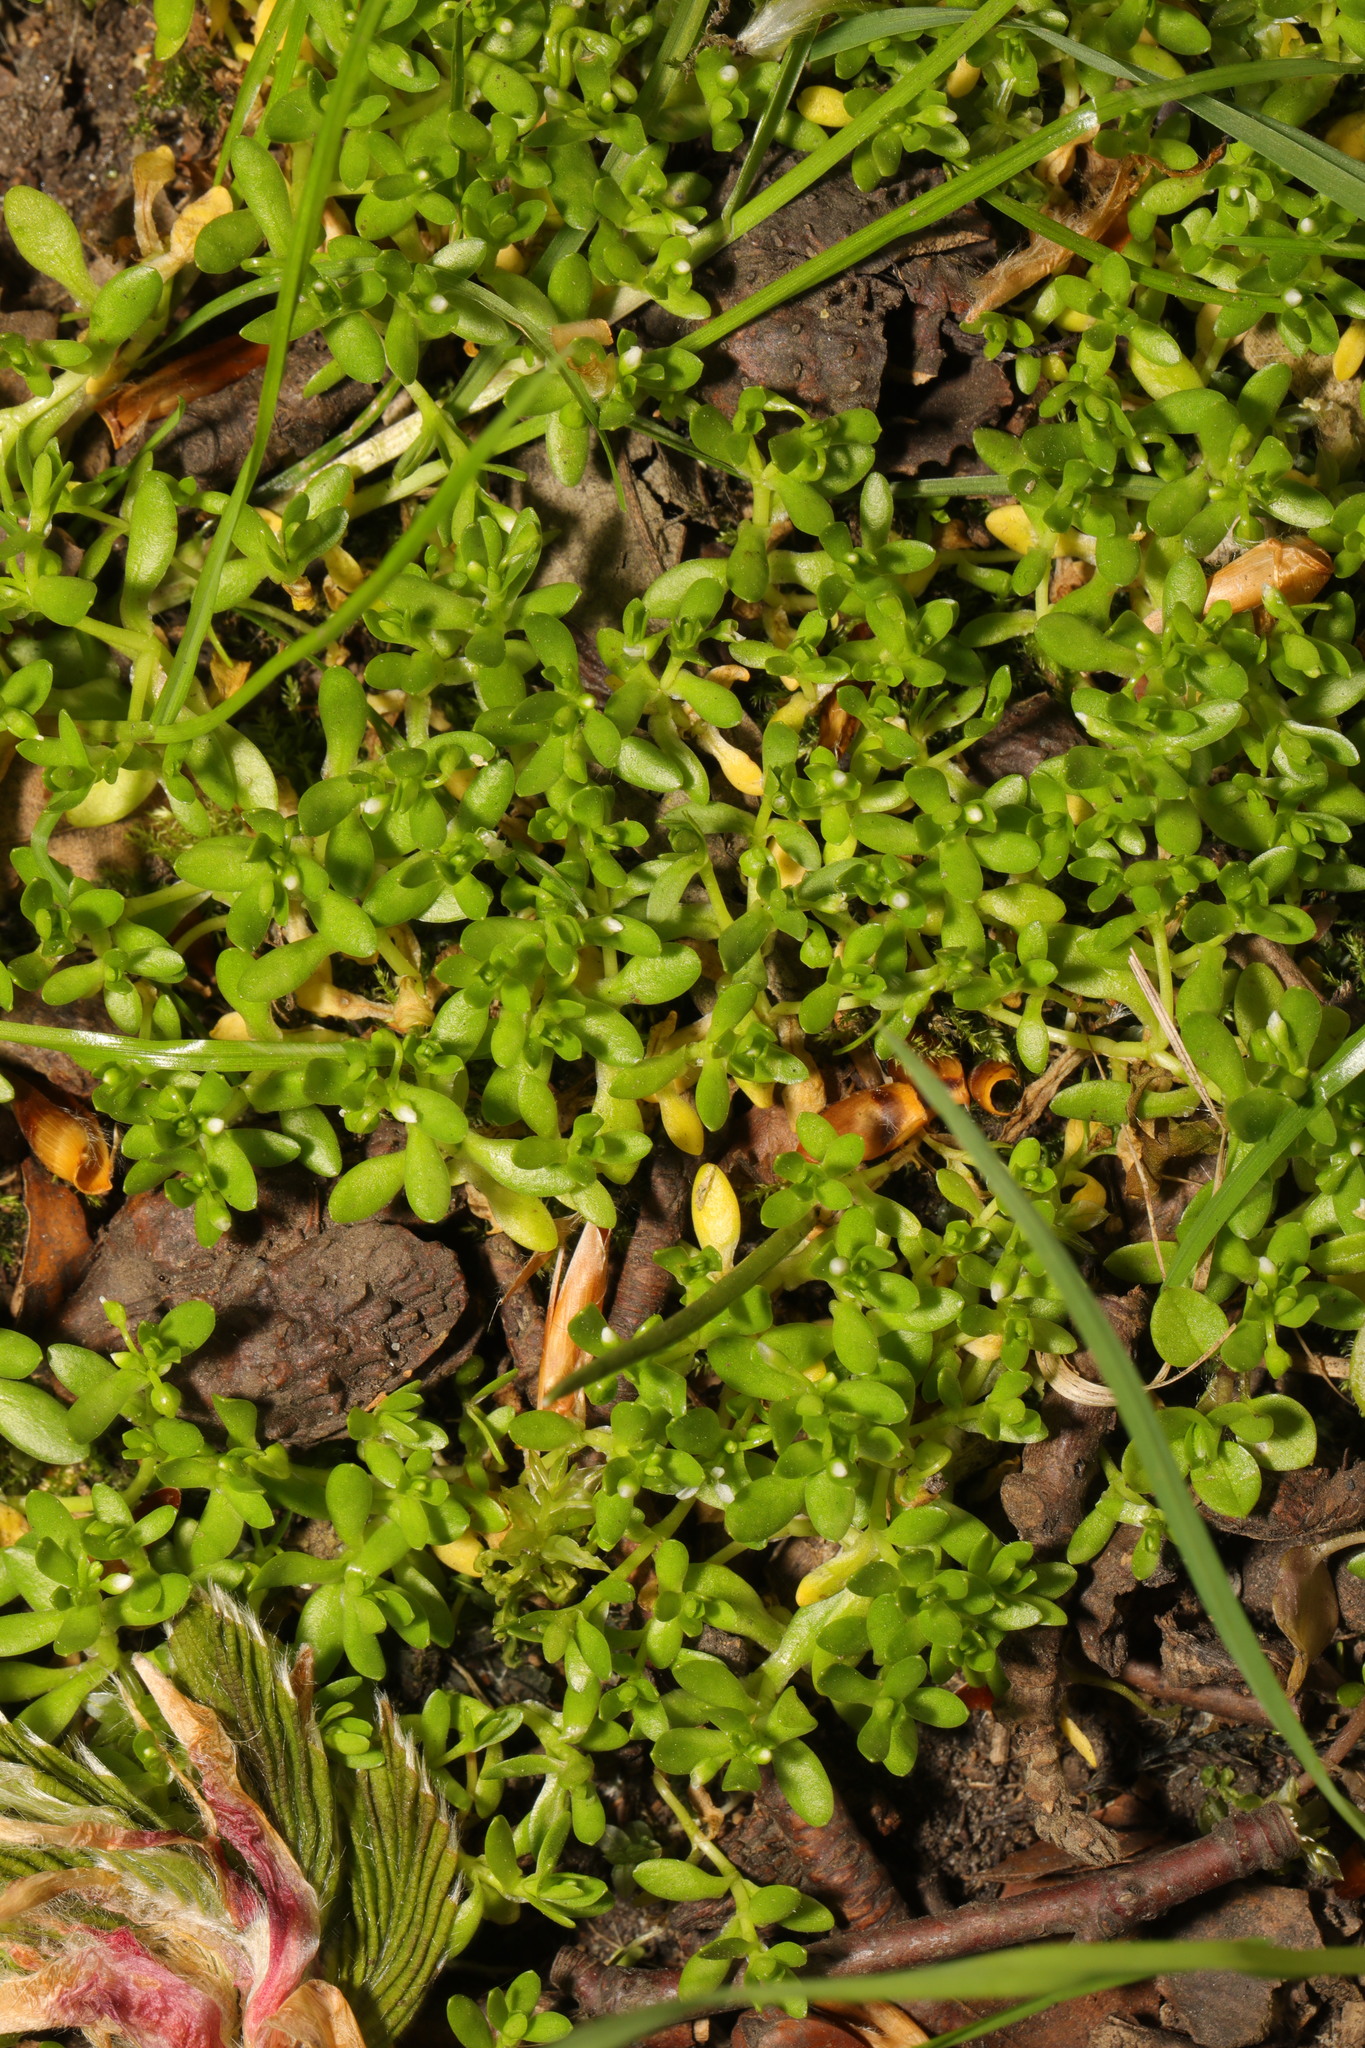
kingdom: Plantae
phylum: Tracheophyta
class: Magnoliopsida
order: Caryophyllales
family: Montiaceae
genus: Montia
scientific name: Montia fontana
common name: Blinks
